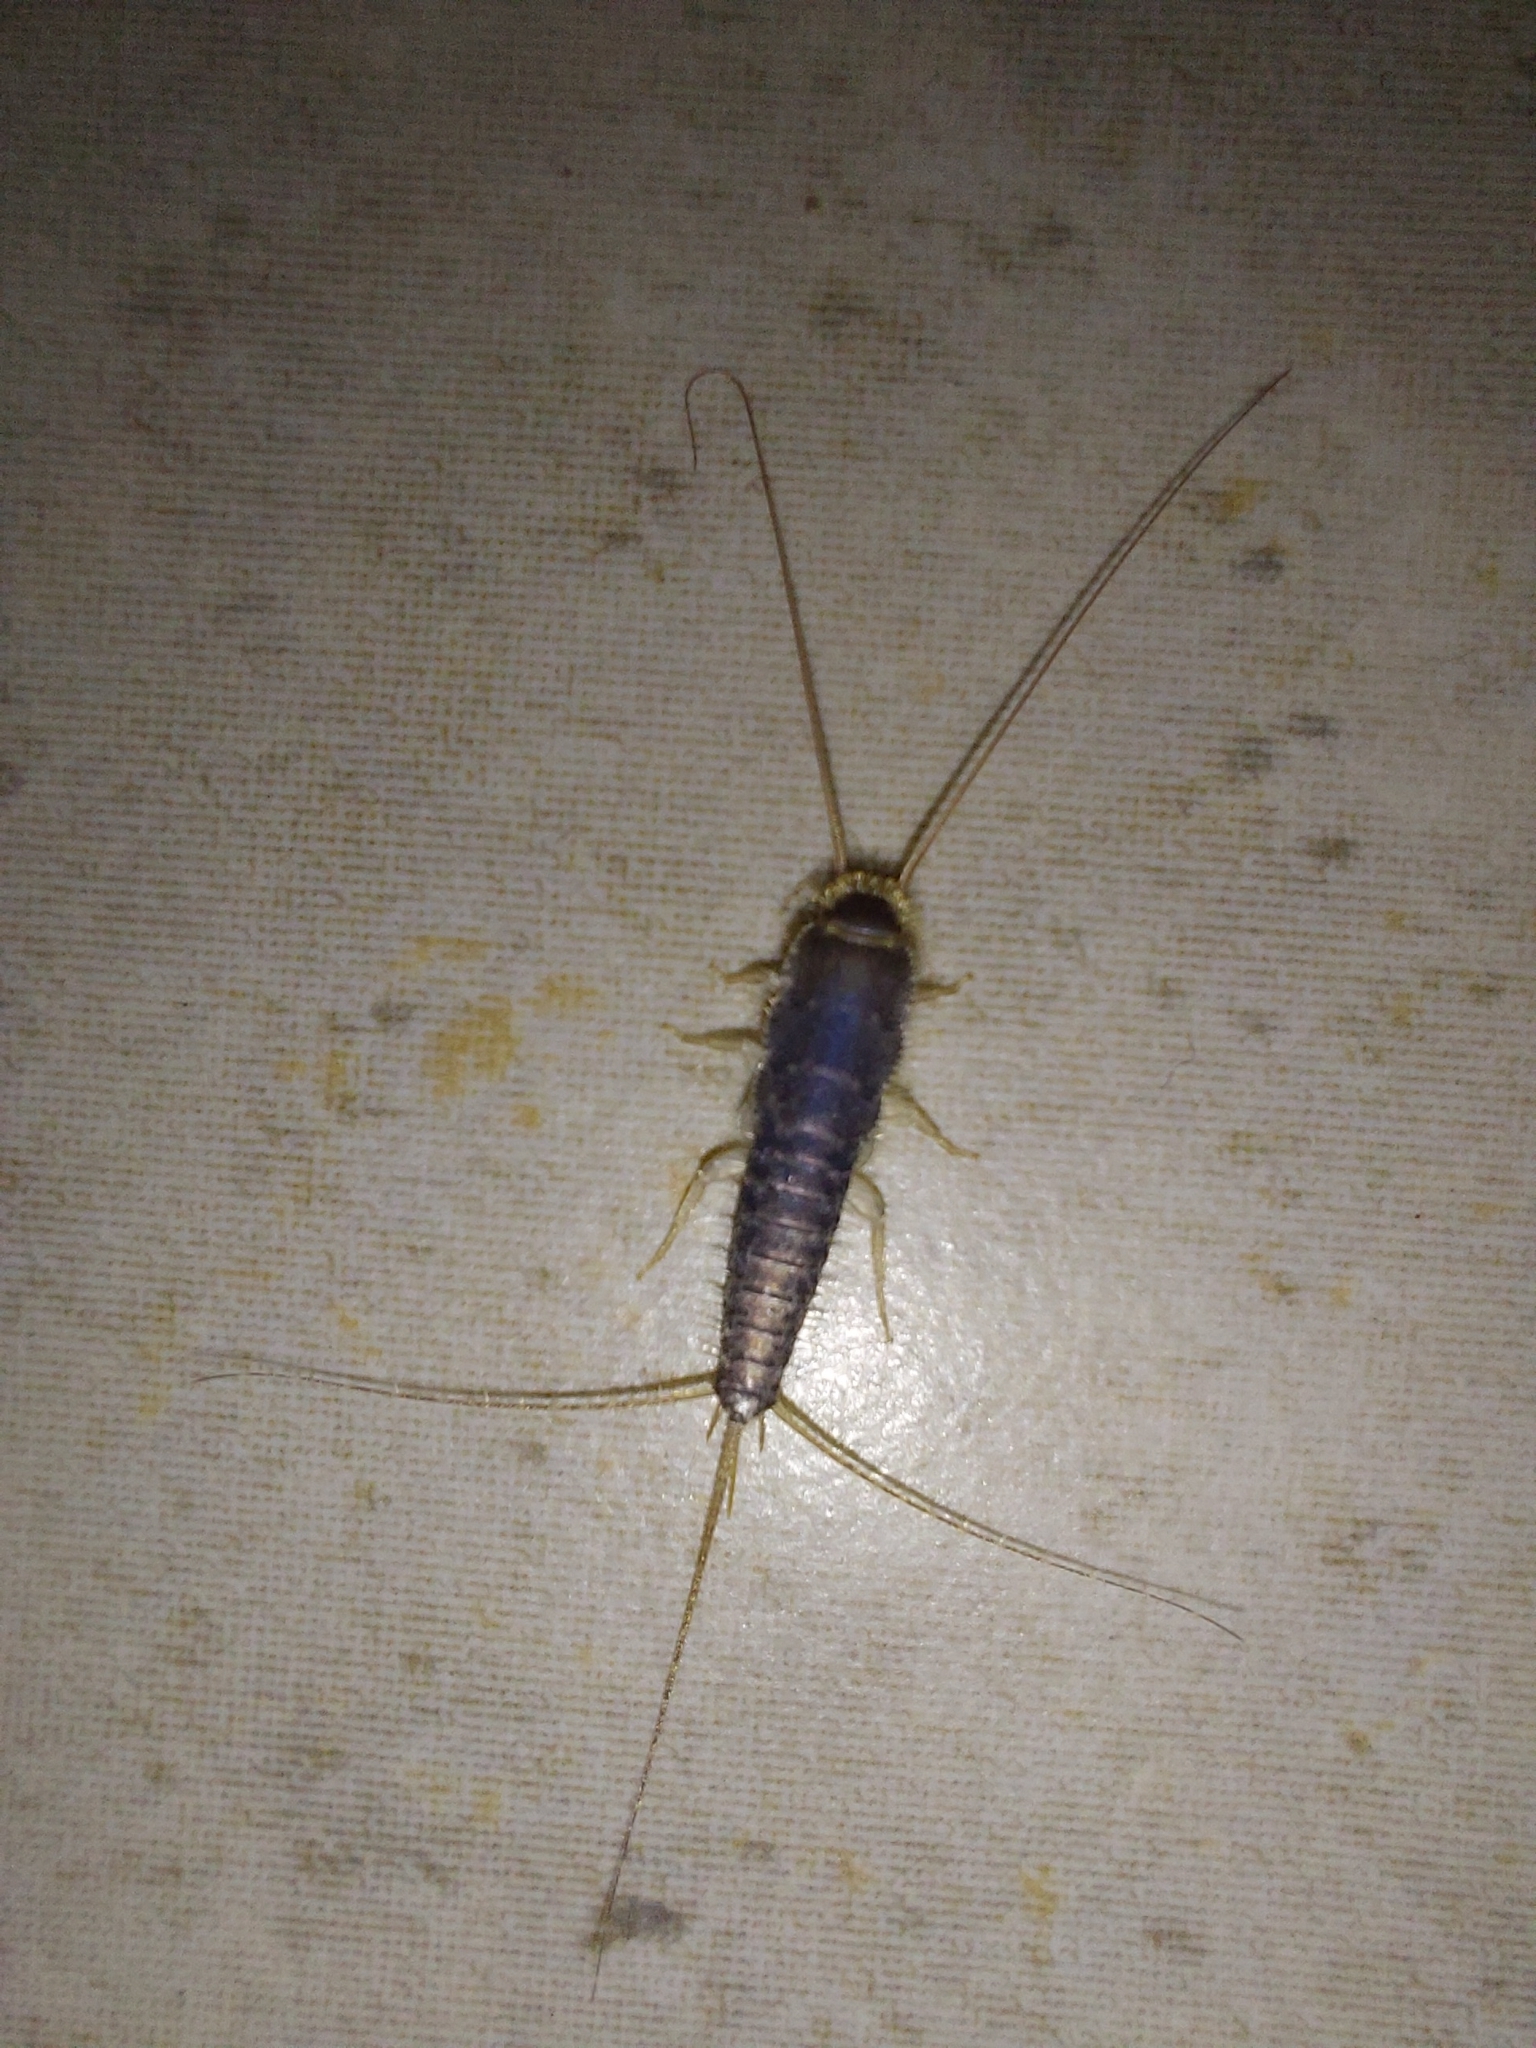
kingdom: Animalia
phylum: Arthropoda
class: Insecta
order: Zygentoma
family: Lepismatidae
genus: Ctenolepisma
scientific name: Ctenolepisma longicaudatum
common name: Silverfish
